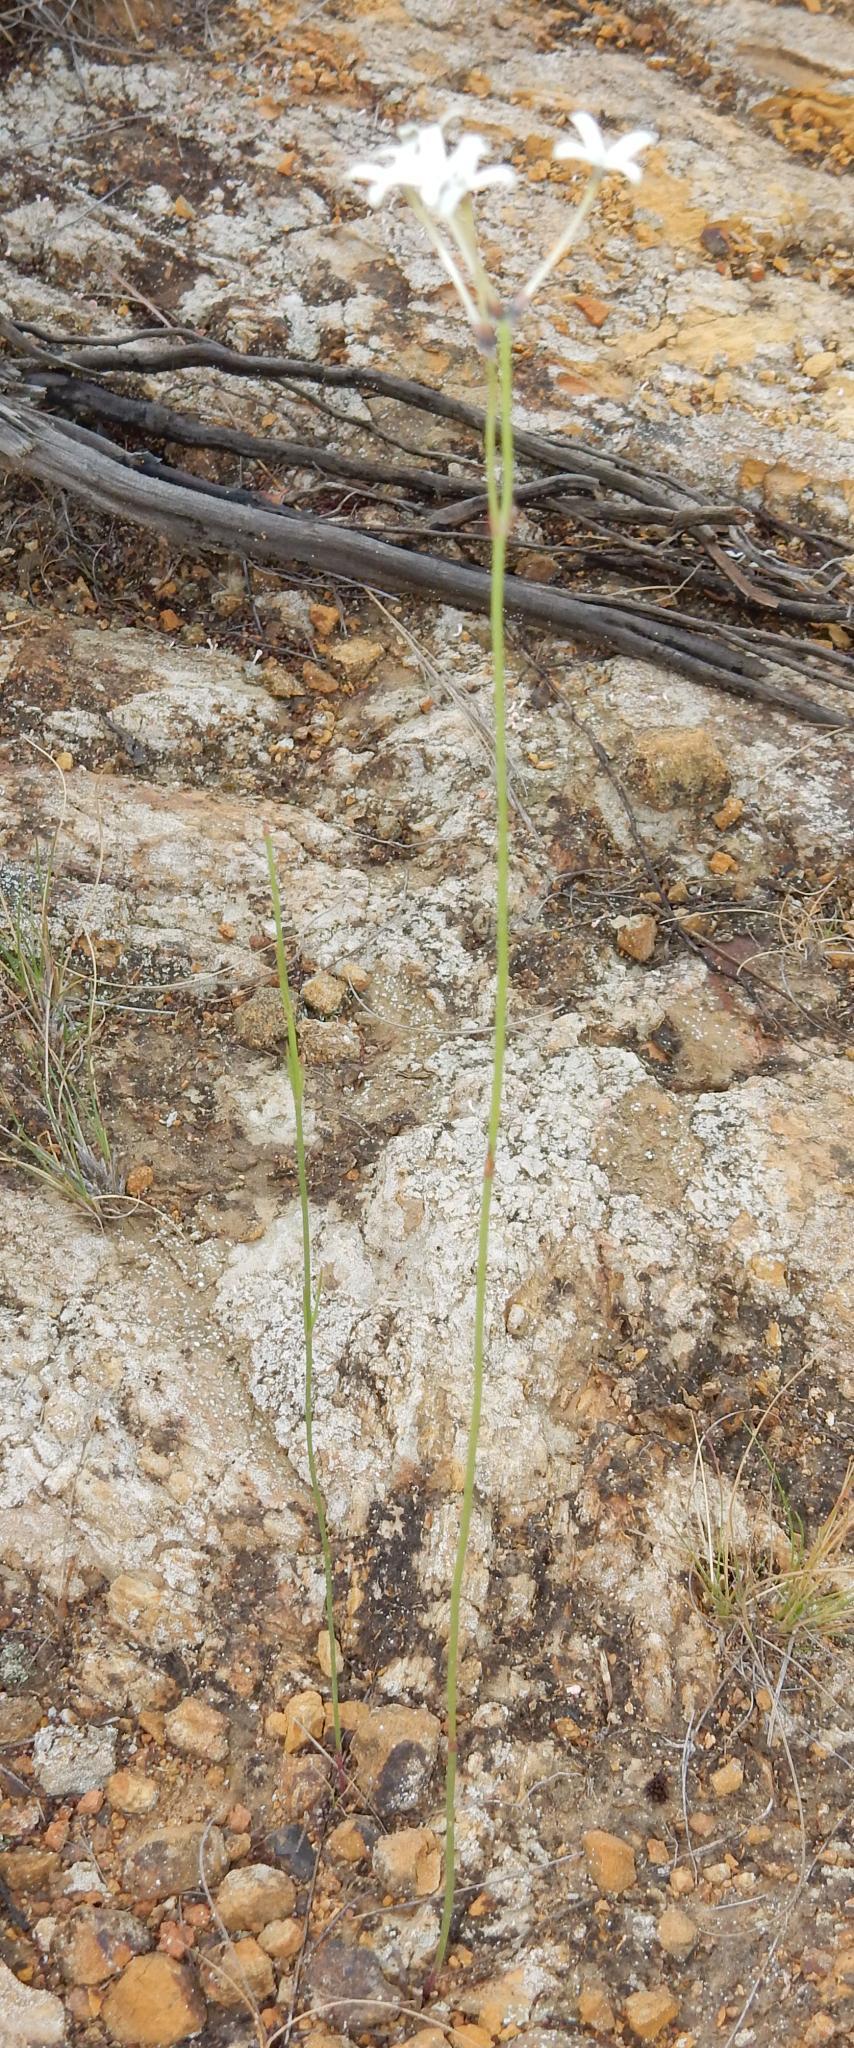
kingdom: Plantae
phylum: Tracheophyta
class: Magnoliopsida
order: Gentianales
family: Rubiaceae
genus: Kohautia
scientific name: Kohautia amatymbica
